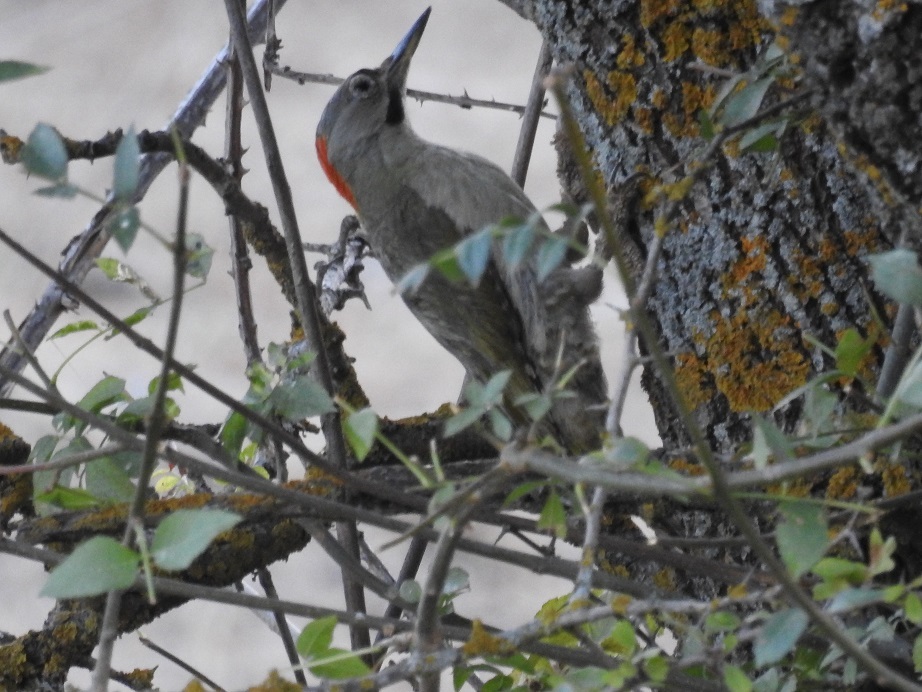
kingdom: Animalia
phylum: Chordata
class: Aves
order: Piciformes
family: Picidae
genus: Picus
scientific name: Picus vaillantii
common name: Levaillant's woodpecker
